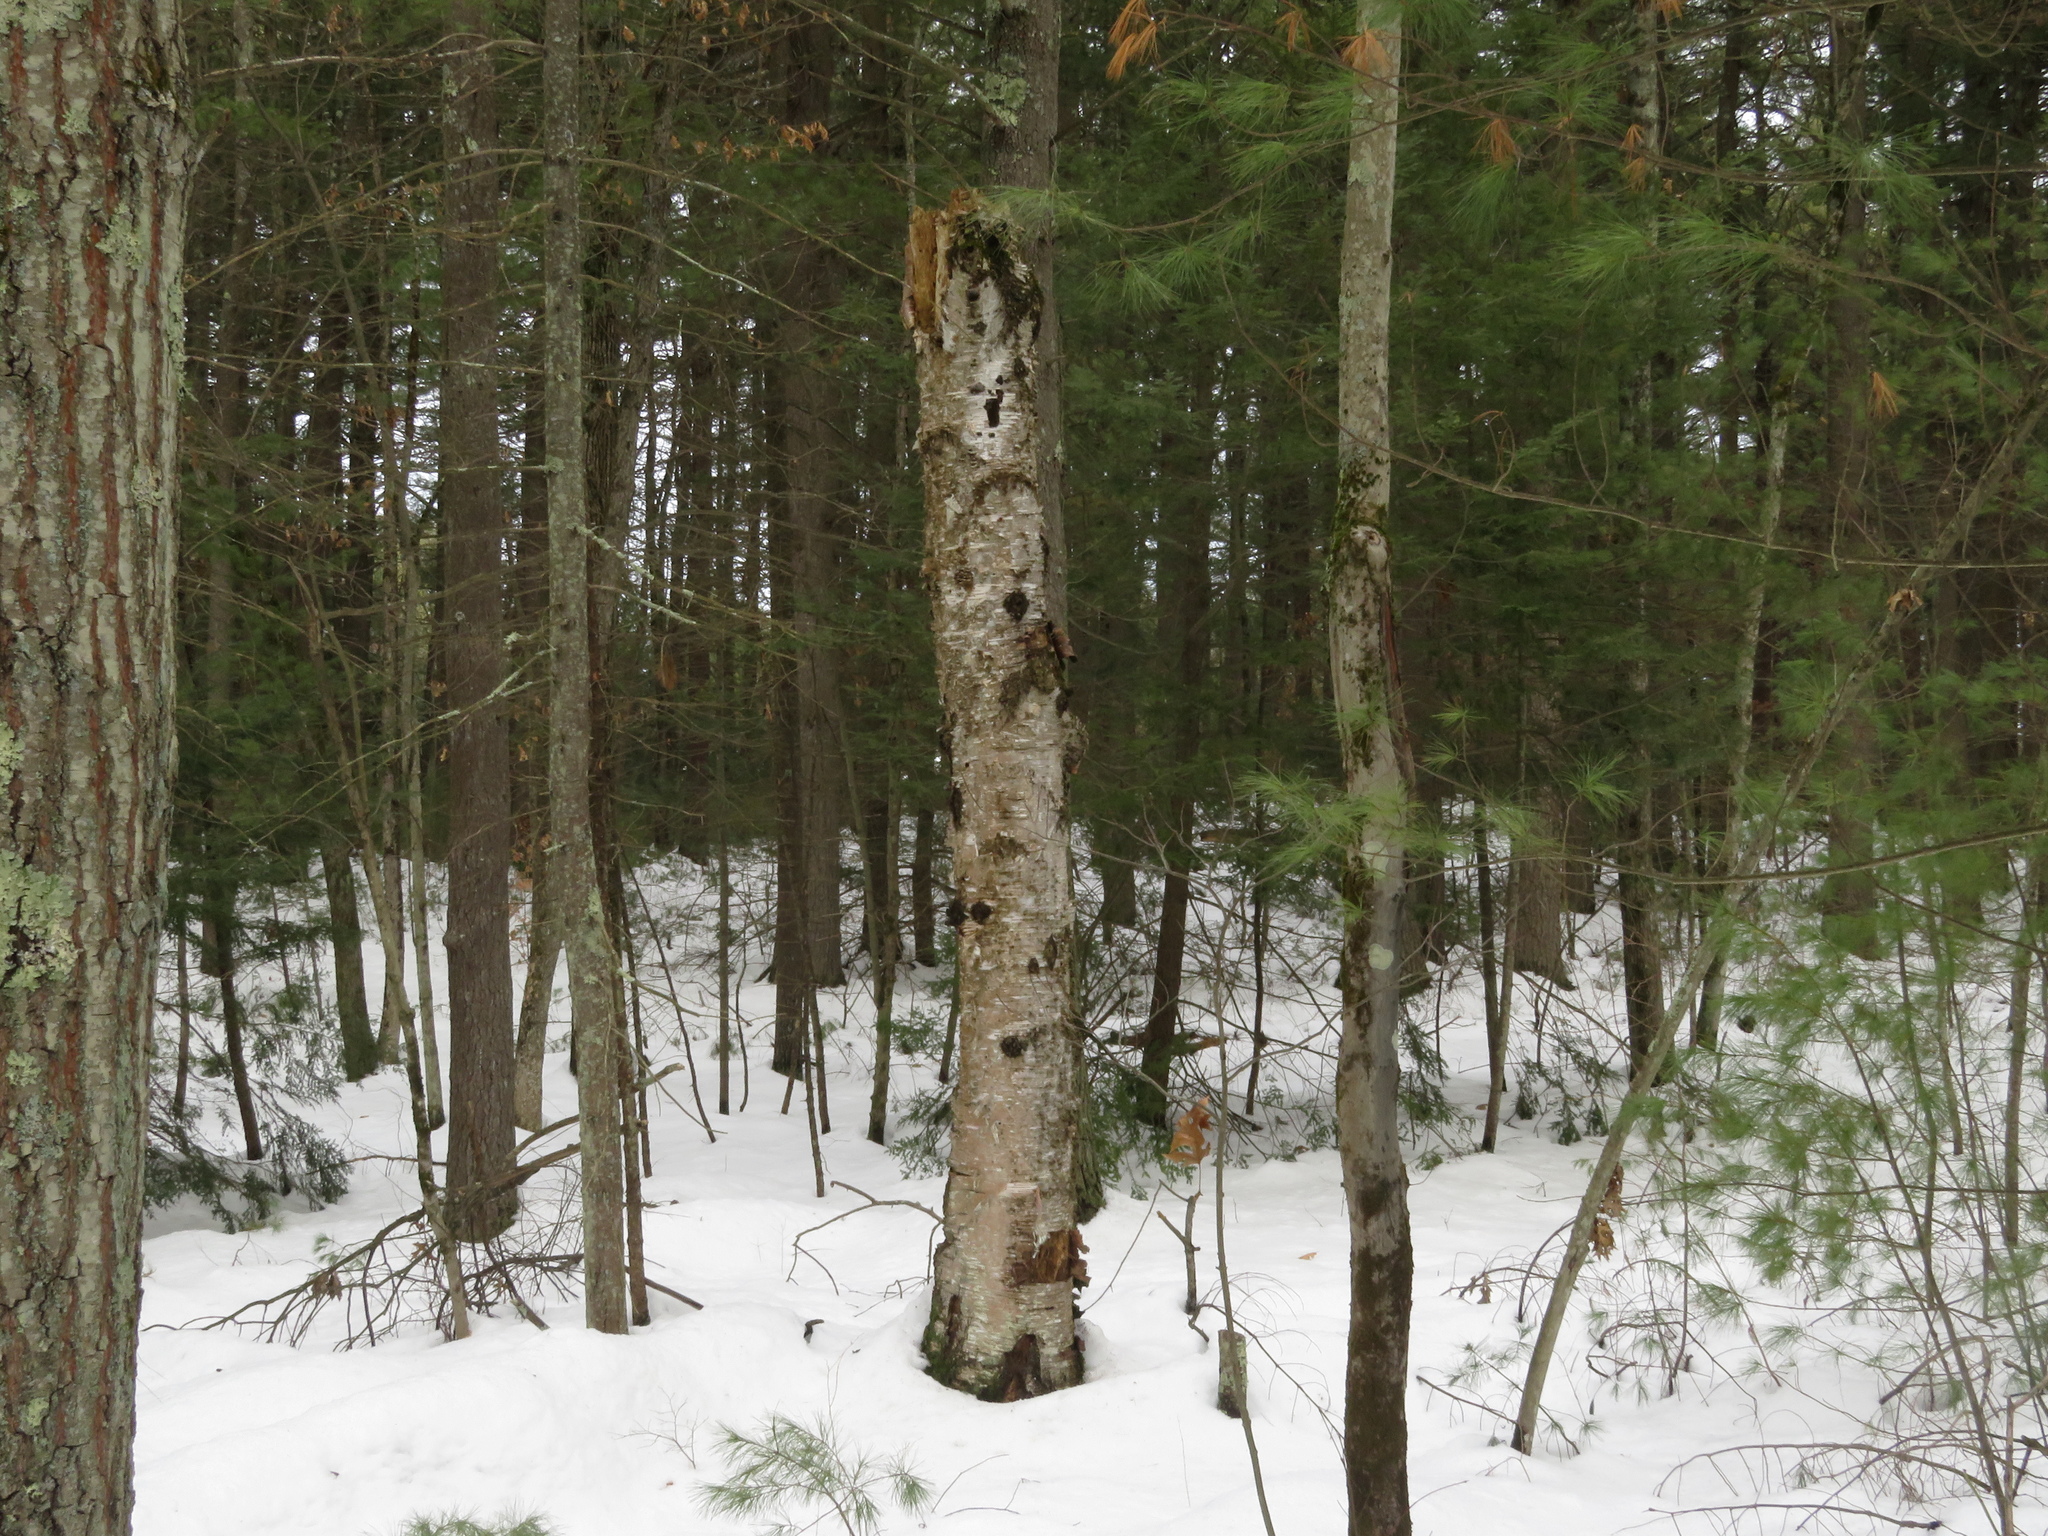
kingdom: Plantae
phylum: Tracheophyta
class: Magnoliopsida
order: Fagales
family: Betulaceae
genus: Betula
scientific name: Betula papyrifera
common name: Paper birch
